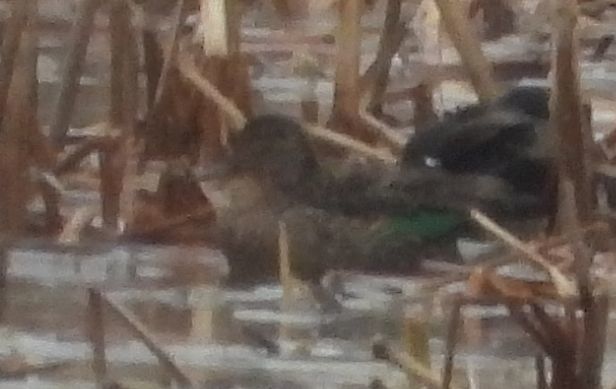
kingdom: Animalia
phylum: Chordata
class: Aves
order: Anseriformes
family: Anatidae
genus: Anas
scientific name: Anas crecca
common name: Eurasian teal
